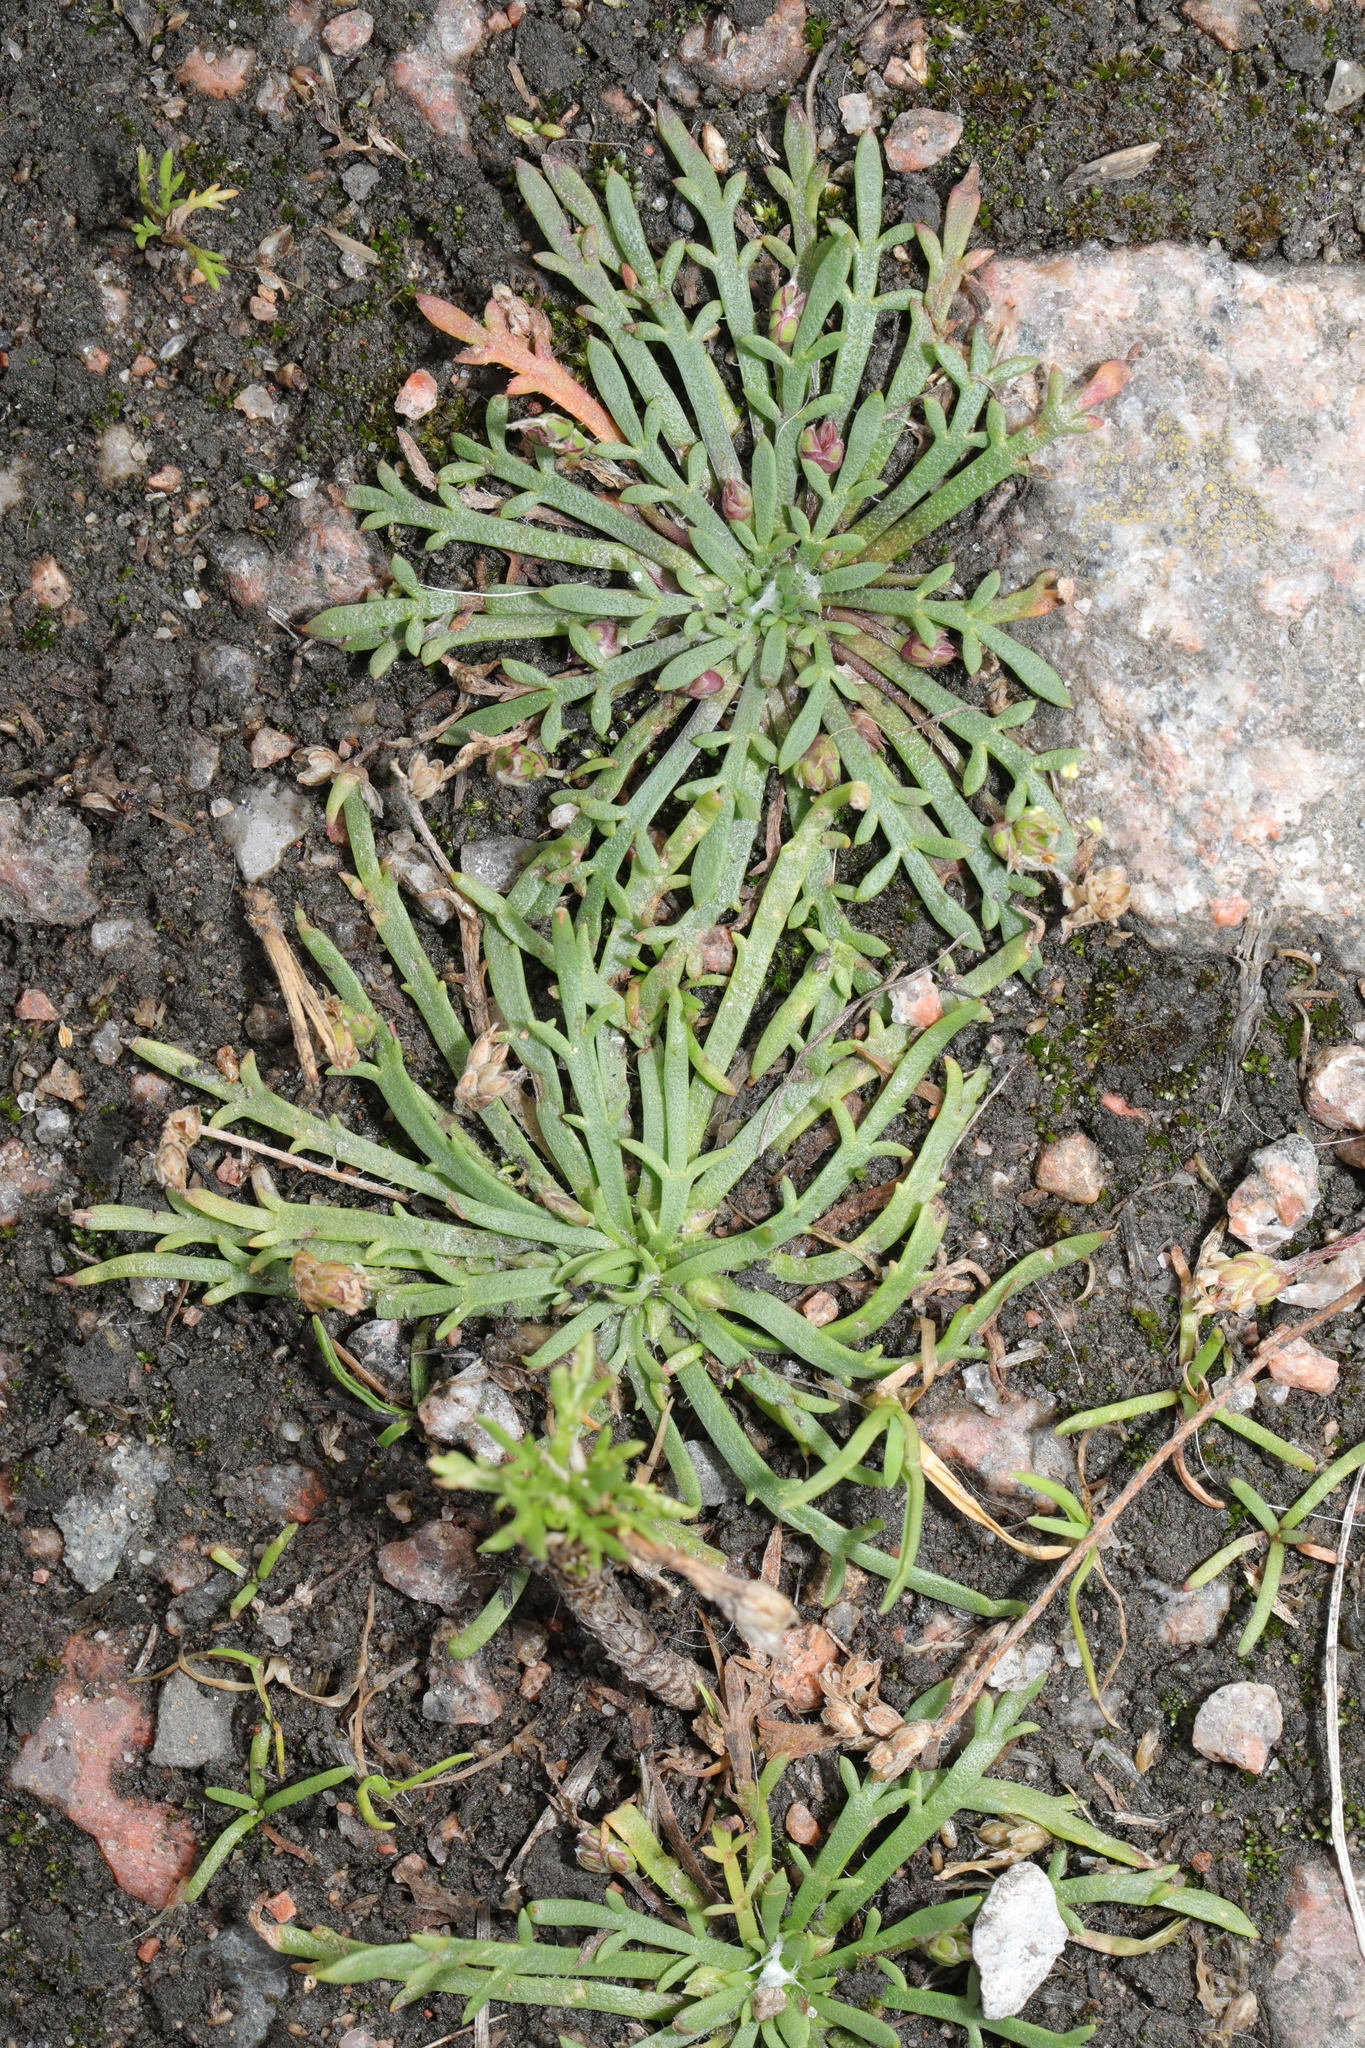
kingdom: Plantae
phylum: Tracheophyta
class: Magnoliopsida
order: Lamiales
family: Plantaginaceae
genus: Plantago
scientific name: Plantago coronopus
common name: Buck's-horn plantain
